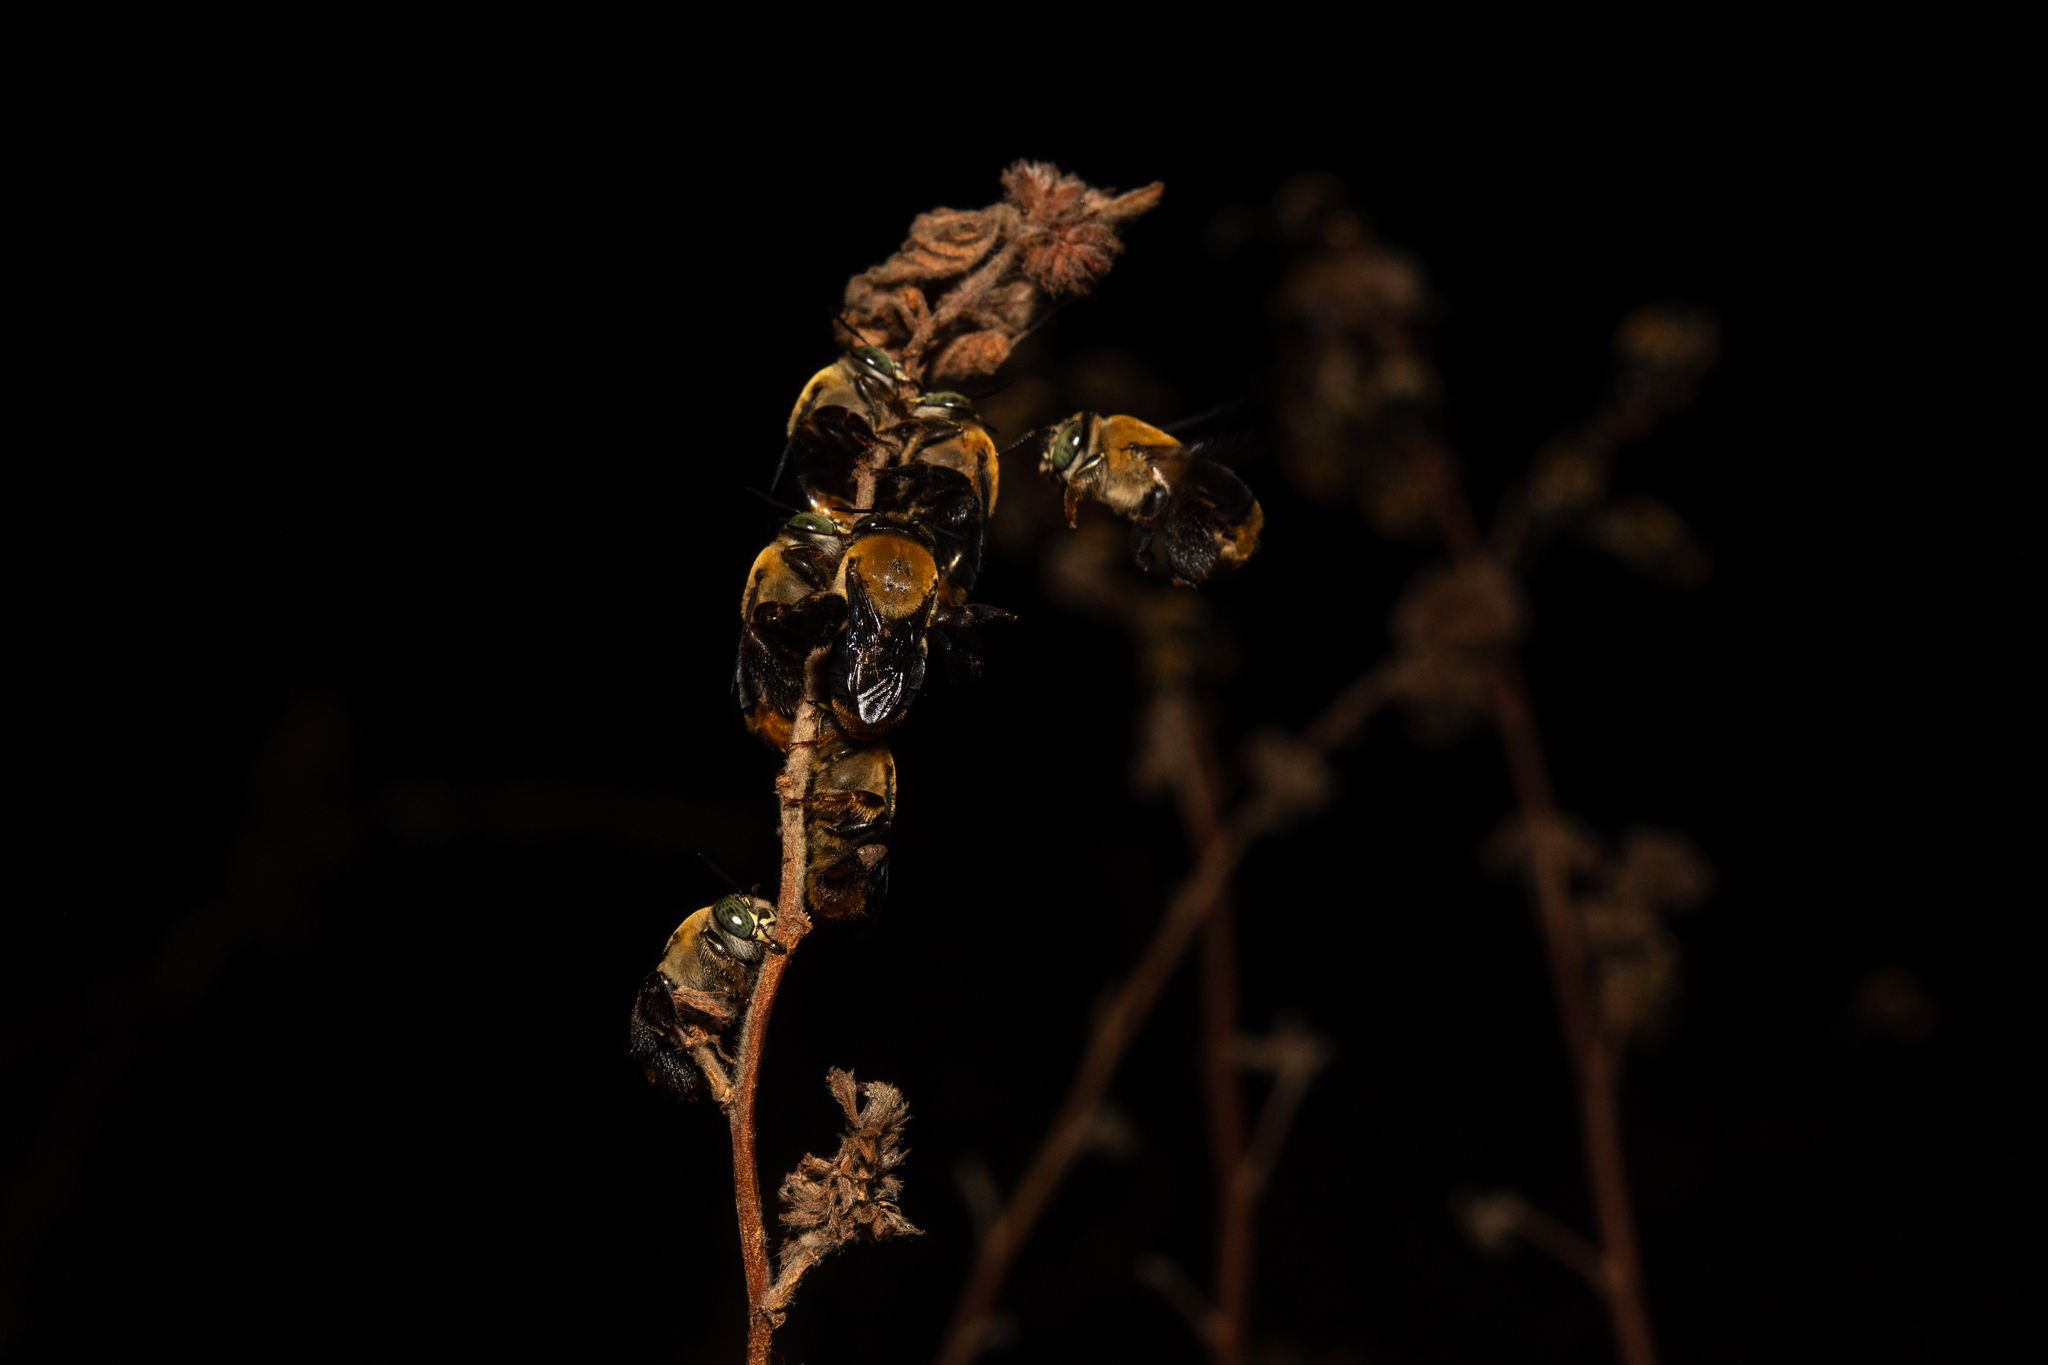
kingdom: Animalia
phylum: Arthropoda
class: Insecta
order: Hymenoptera
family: Apidae
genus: Centris
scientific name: Centris varia
